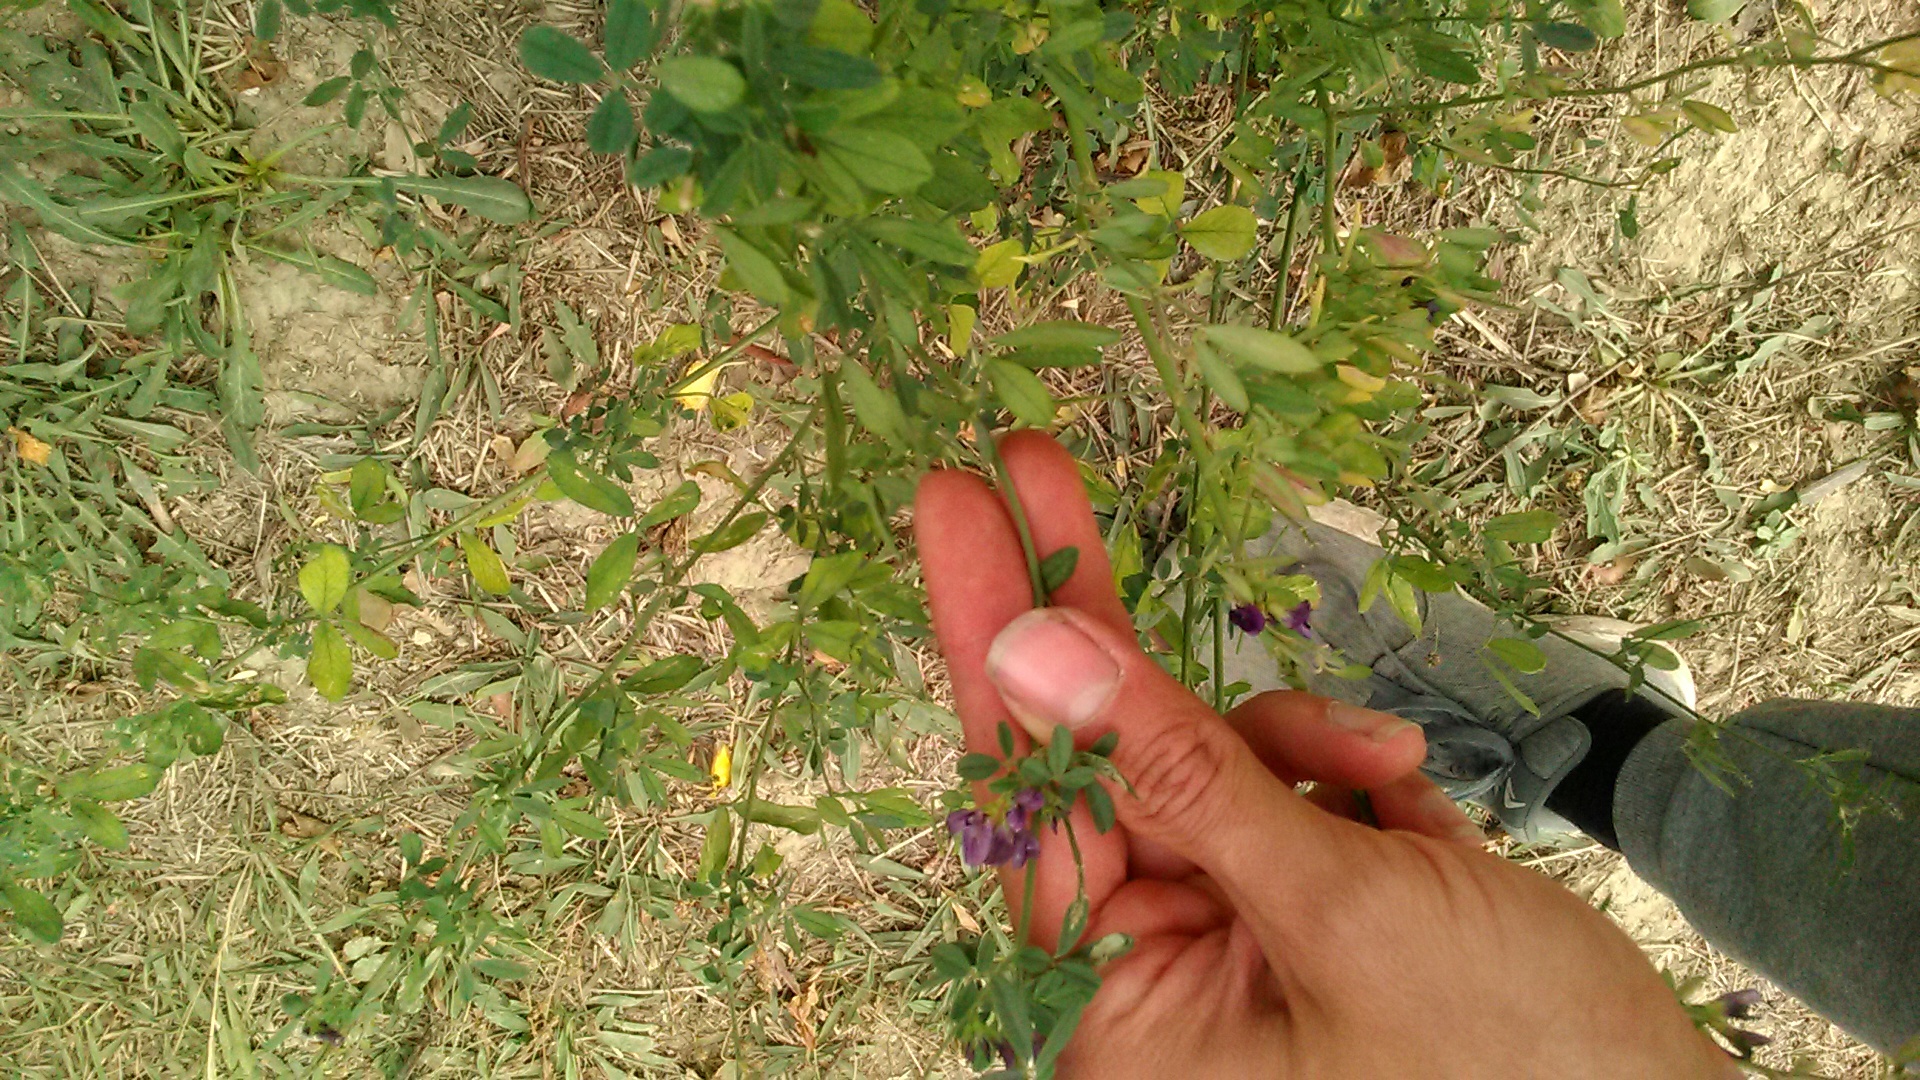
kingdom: Plantae
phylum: Tracheophyta
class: Magnoliopsida
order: Fabales
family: Fabaceae
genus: Medicago
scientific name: Medicago sativa
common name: Alfalfa
